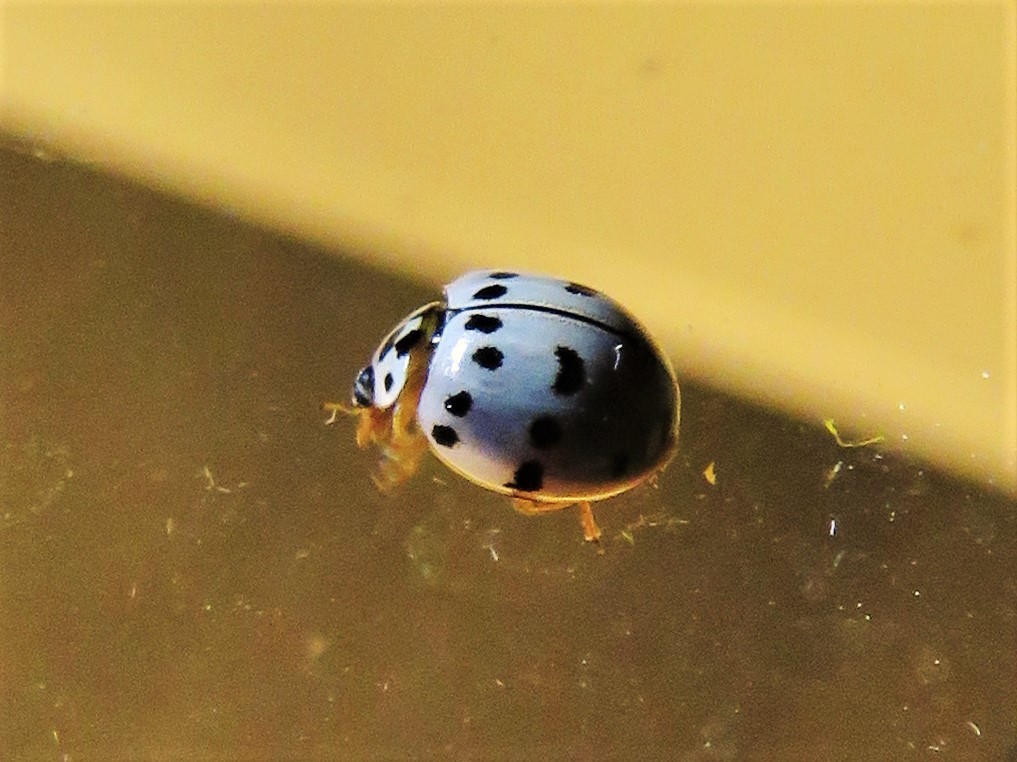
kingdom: Animalia
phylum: Arthropoda
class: Insecta
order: Coleoptera
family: Coccinellidae
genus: Olla
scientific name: Olla v-nigrum
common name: Ashy gray lady beetle
